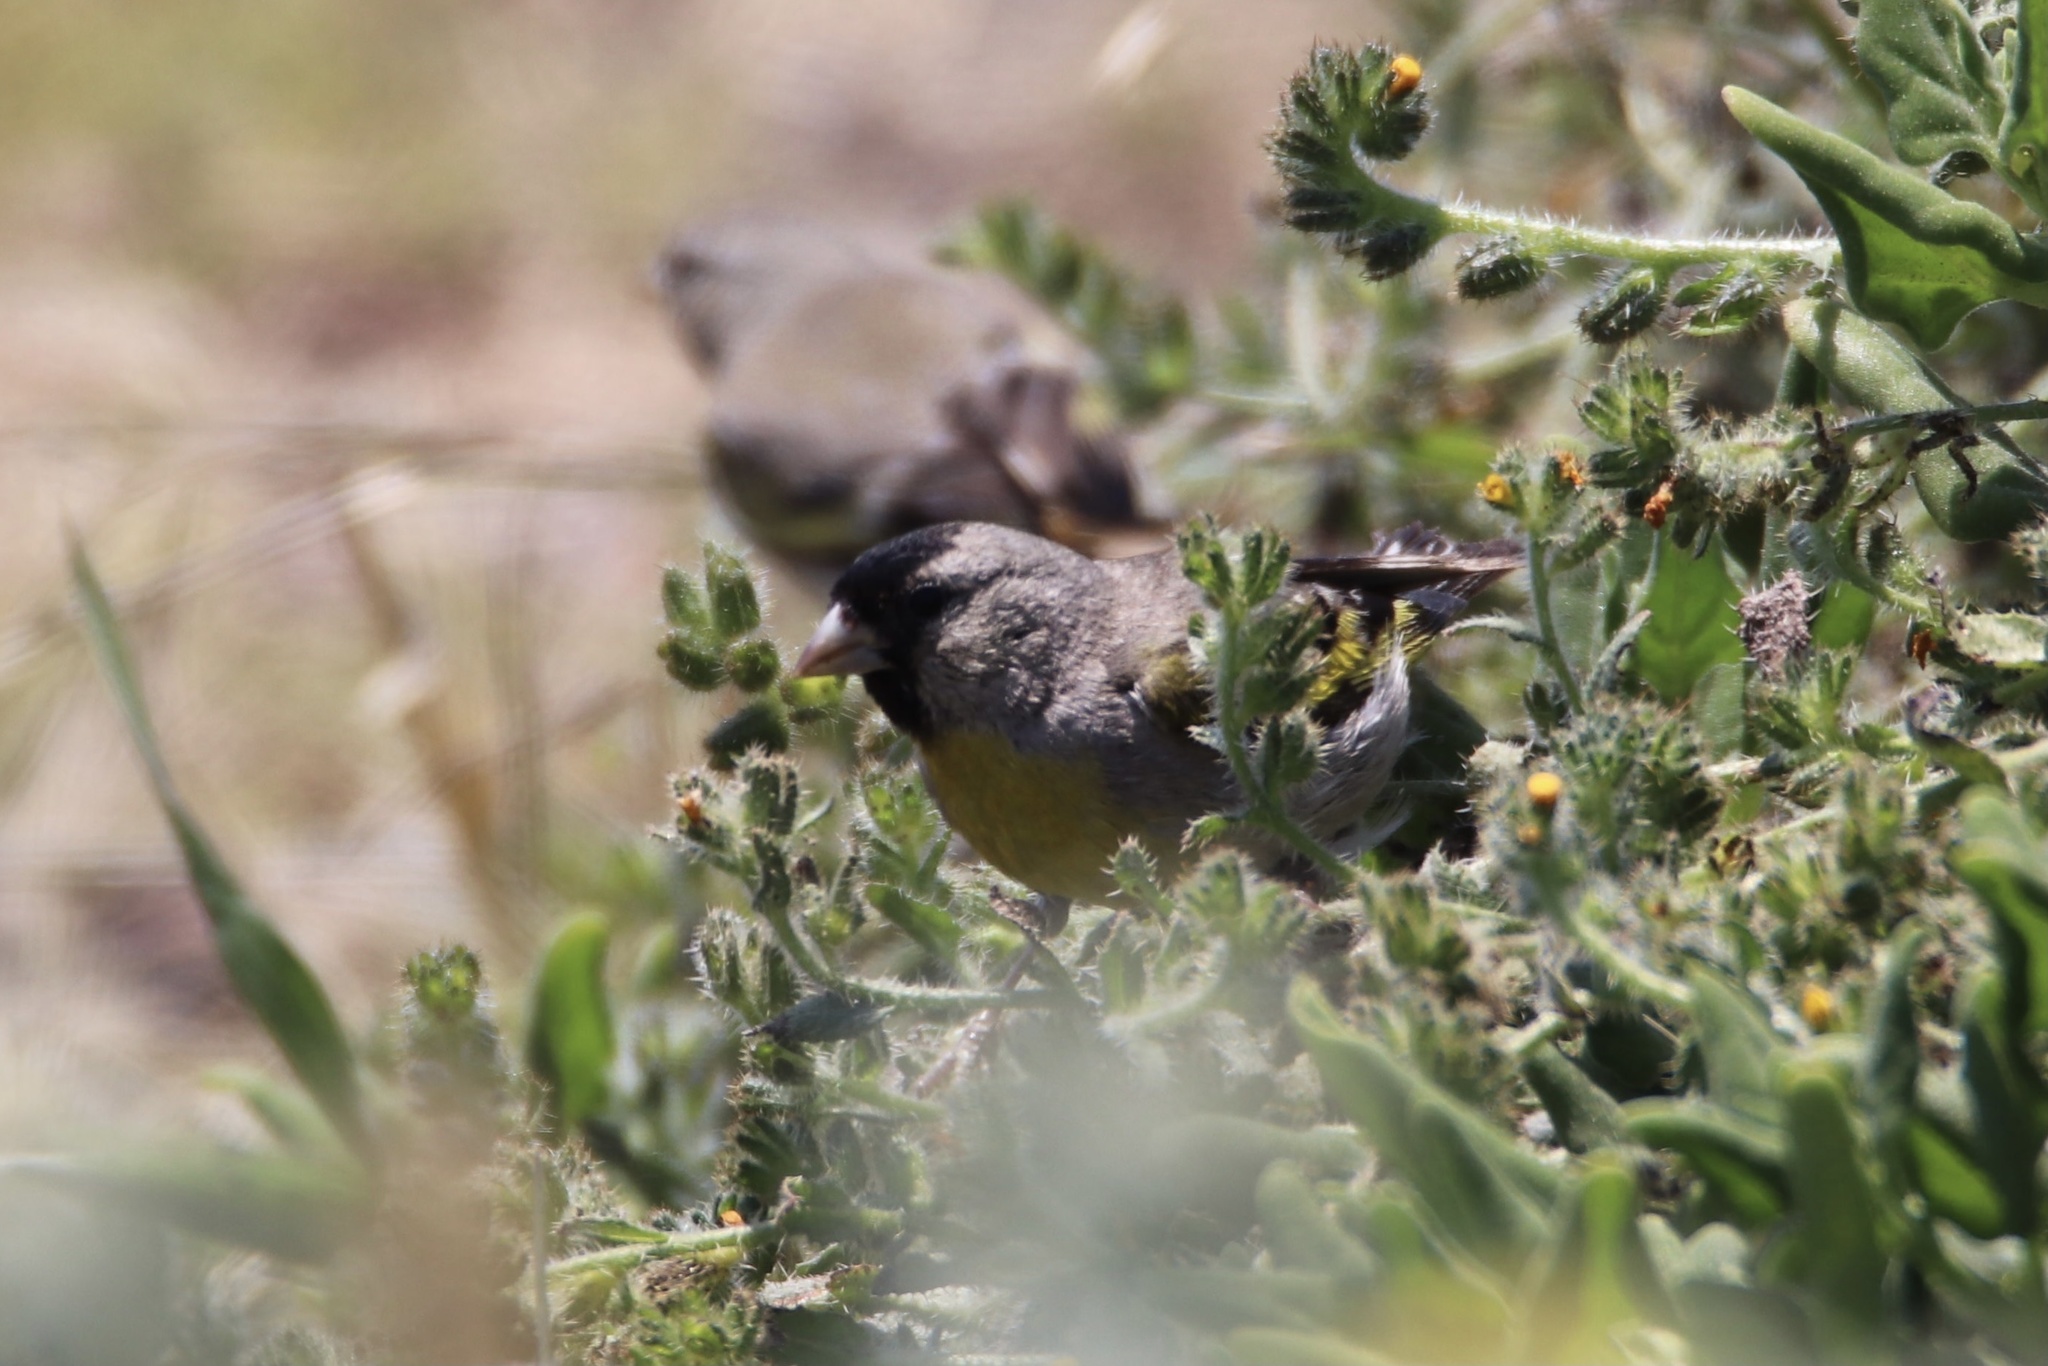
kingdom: Animalia
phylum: Chordata
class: Aves
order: Passeriformes
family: Fringillidae
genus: Spinus
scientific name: Spinus lawrencei
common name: Lawrence's goldfinch
